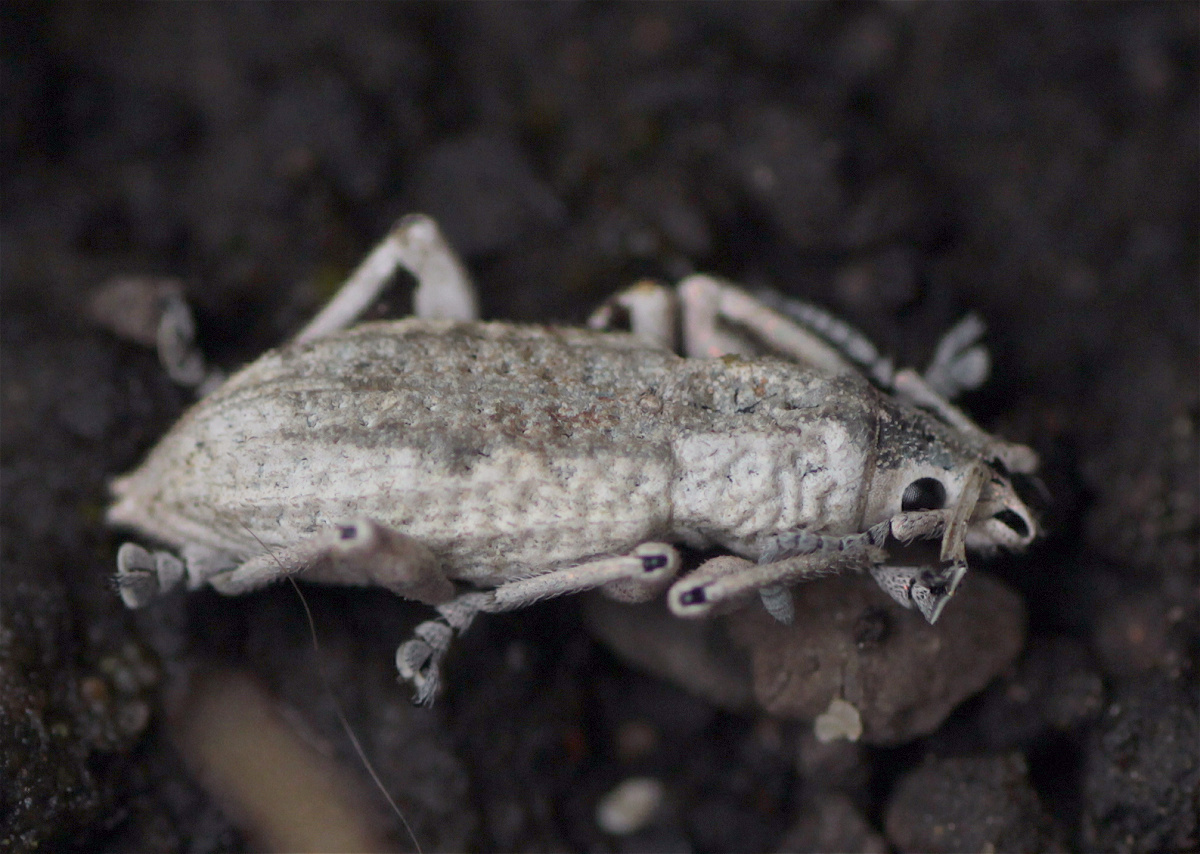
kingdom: Animalia
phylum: Arthropoda
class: Insecta
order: Coleoptera
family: Curculionidae
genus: Compsus
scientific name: Compsus canescens
